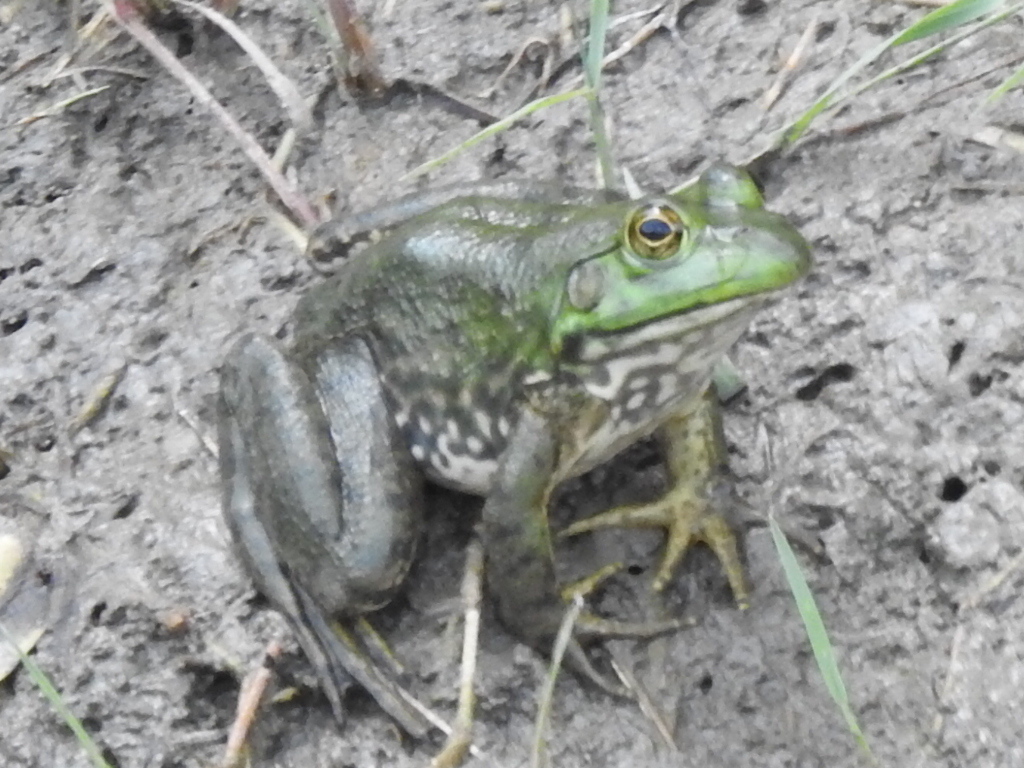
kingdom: Animalia
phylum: Chordata
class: Amphibia
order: Anura
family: Ranidae
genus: Lithobates
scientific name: Lithobates catesbeianus
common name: American bullfrog
